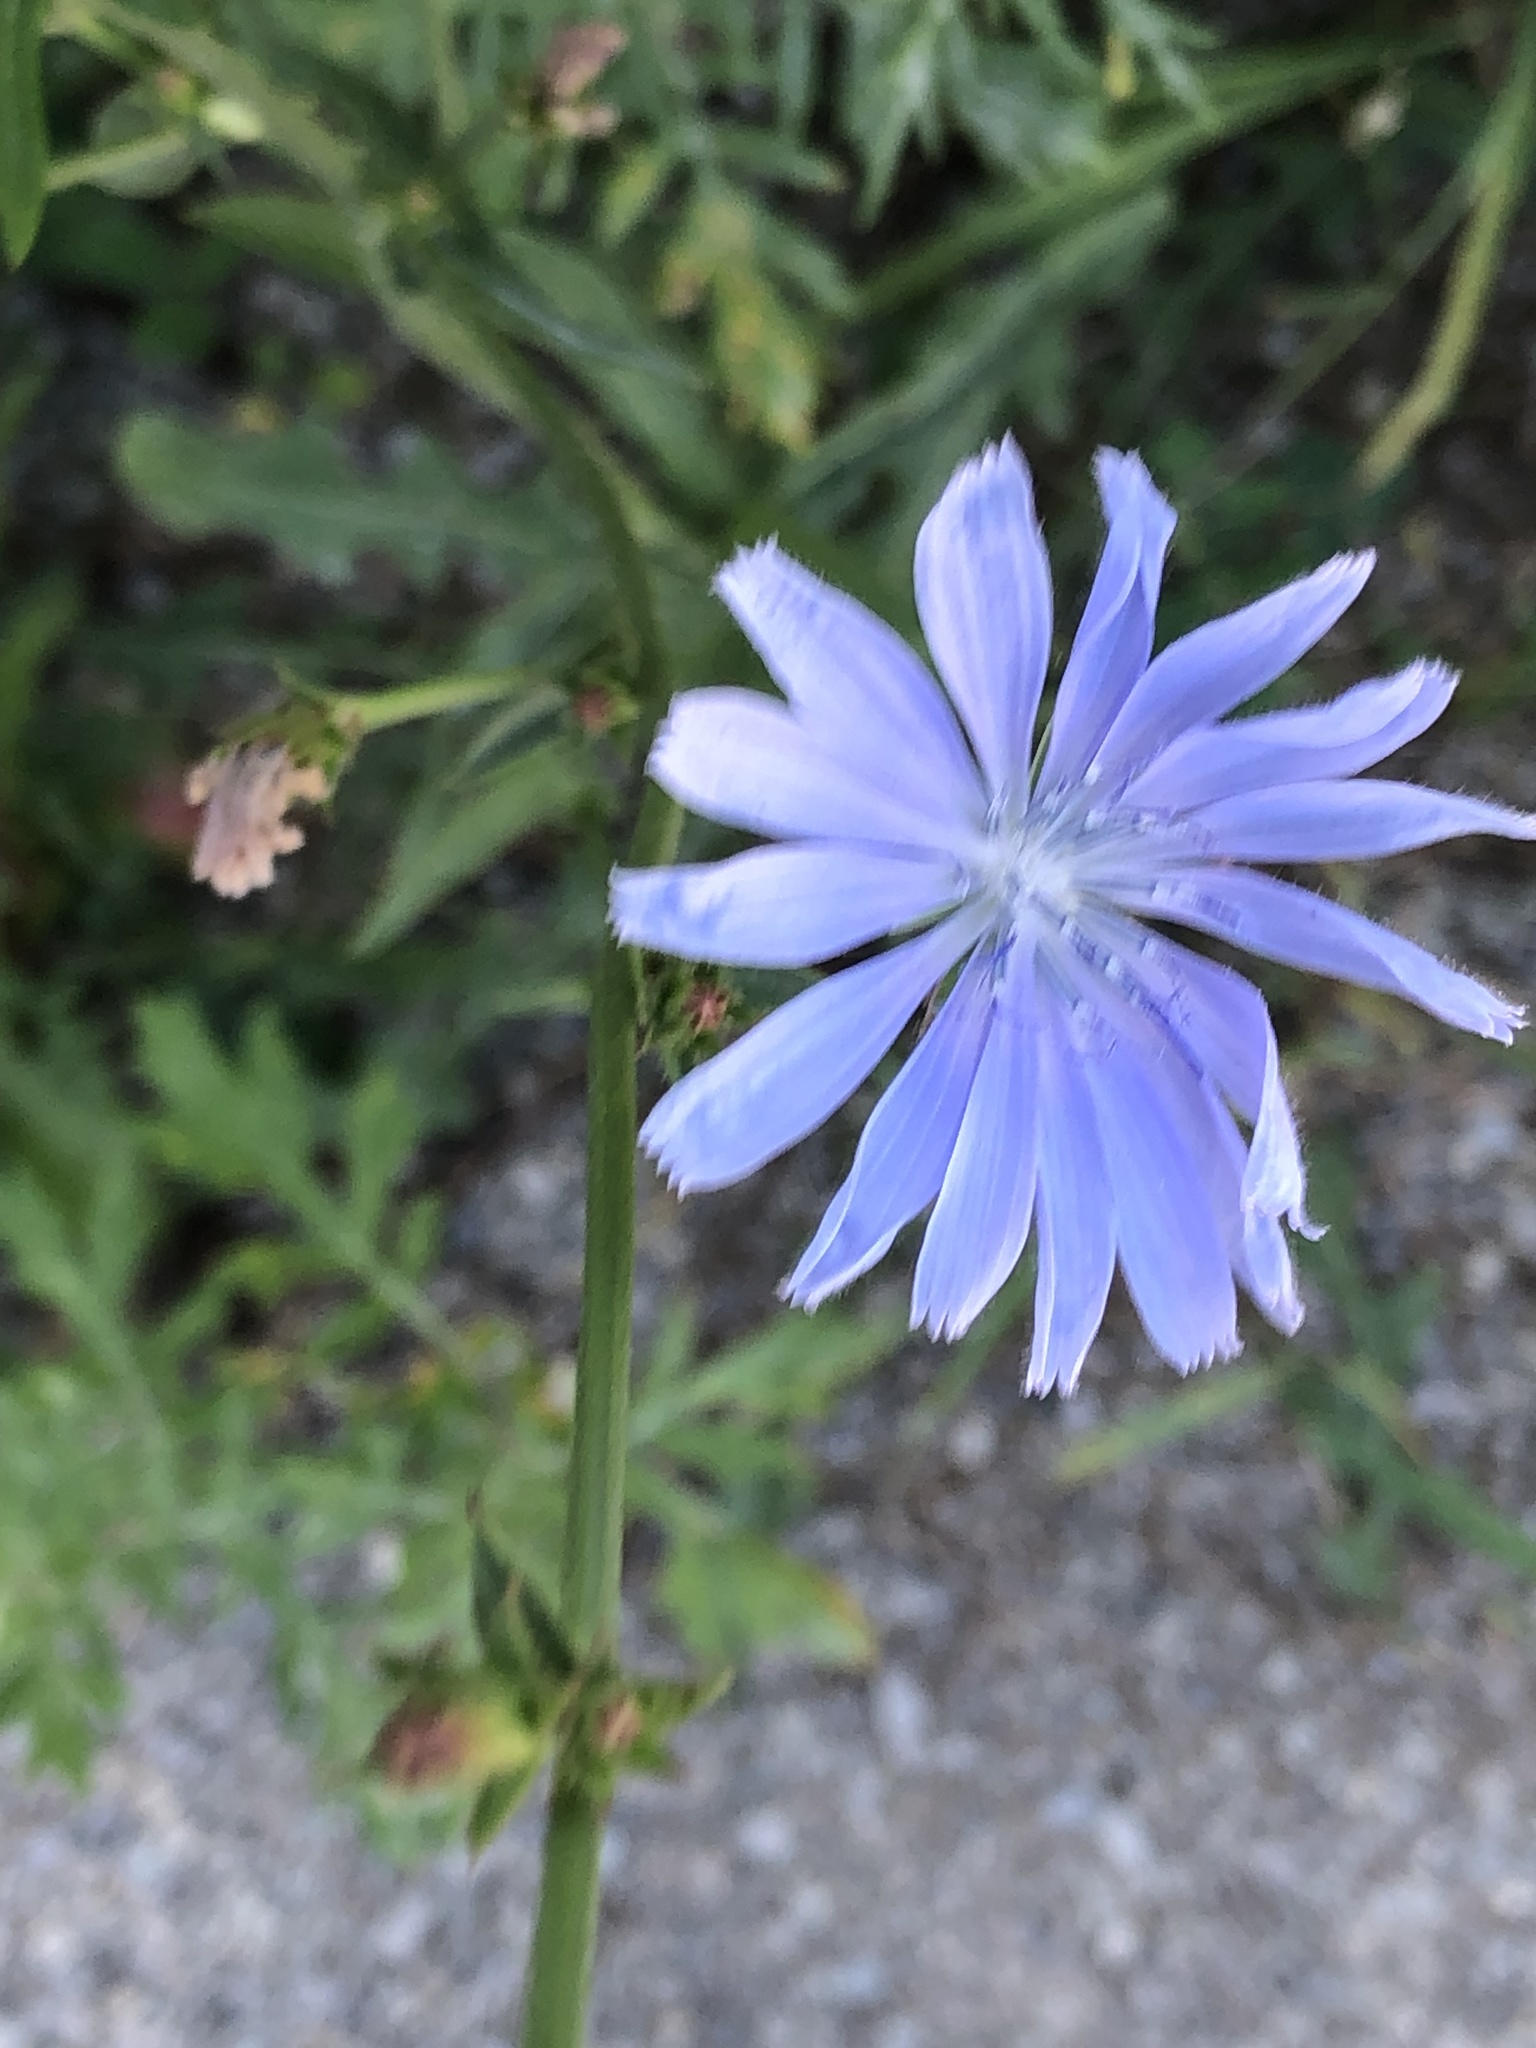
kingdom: Plantae
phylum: Tracheophyta
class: Magnoliopsida
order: Asterales
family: Asteraceae
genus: Cichorium
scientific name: Cichorium intybus
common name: Chicory
